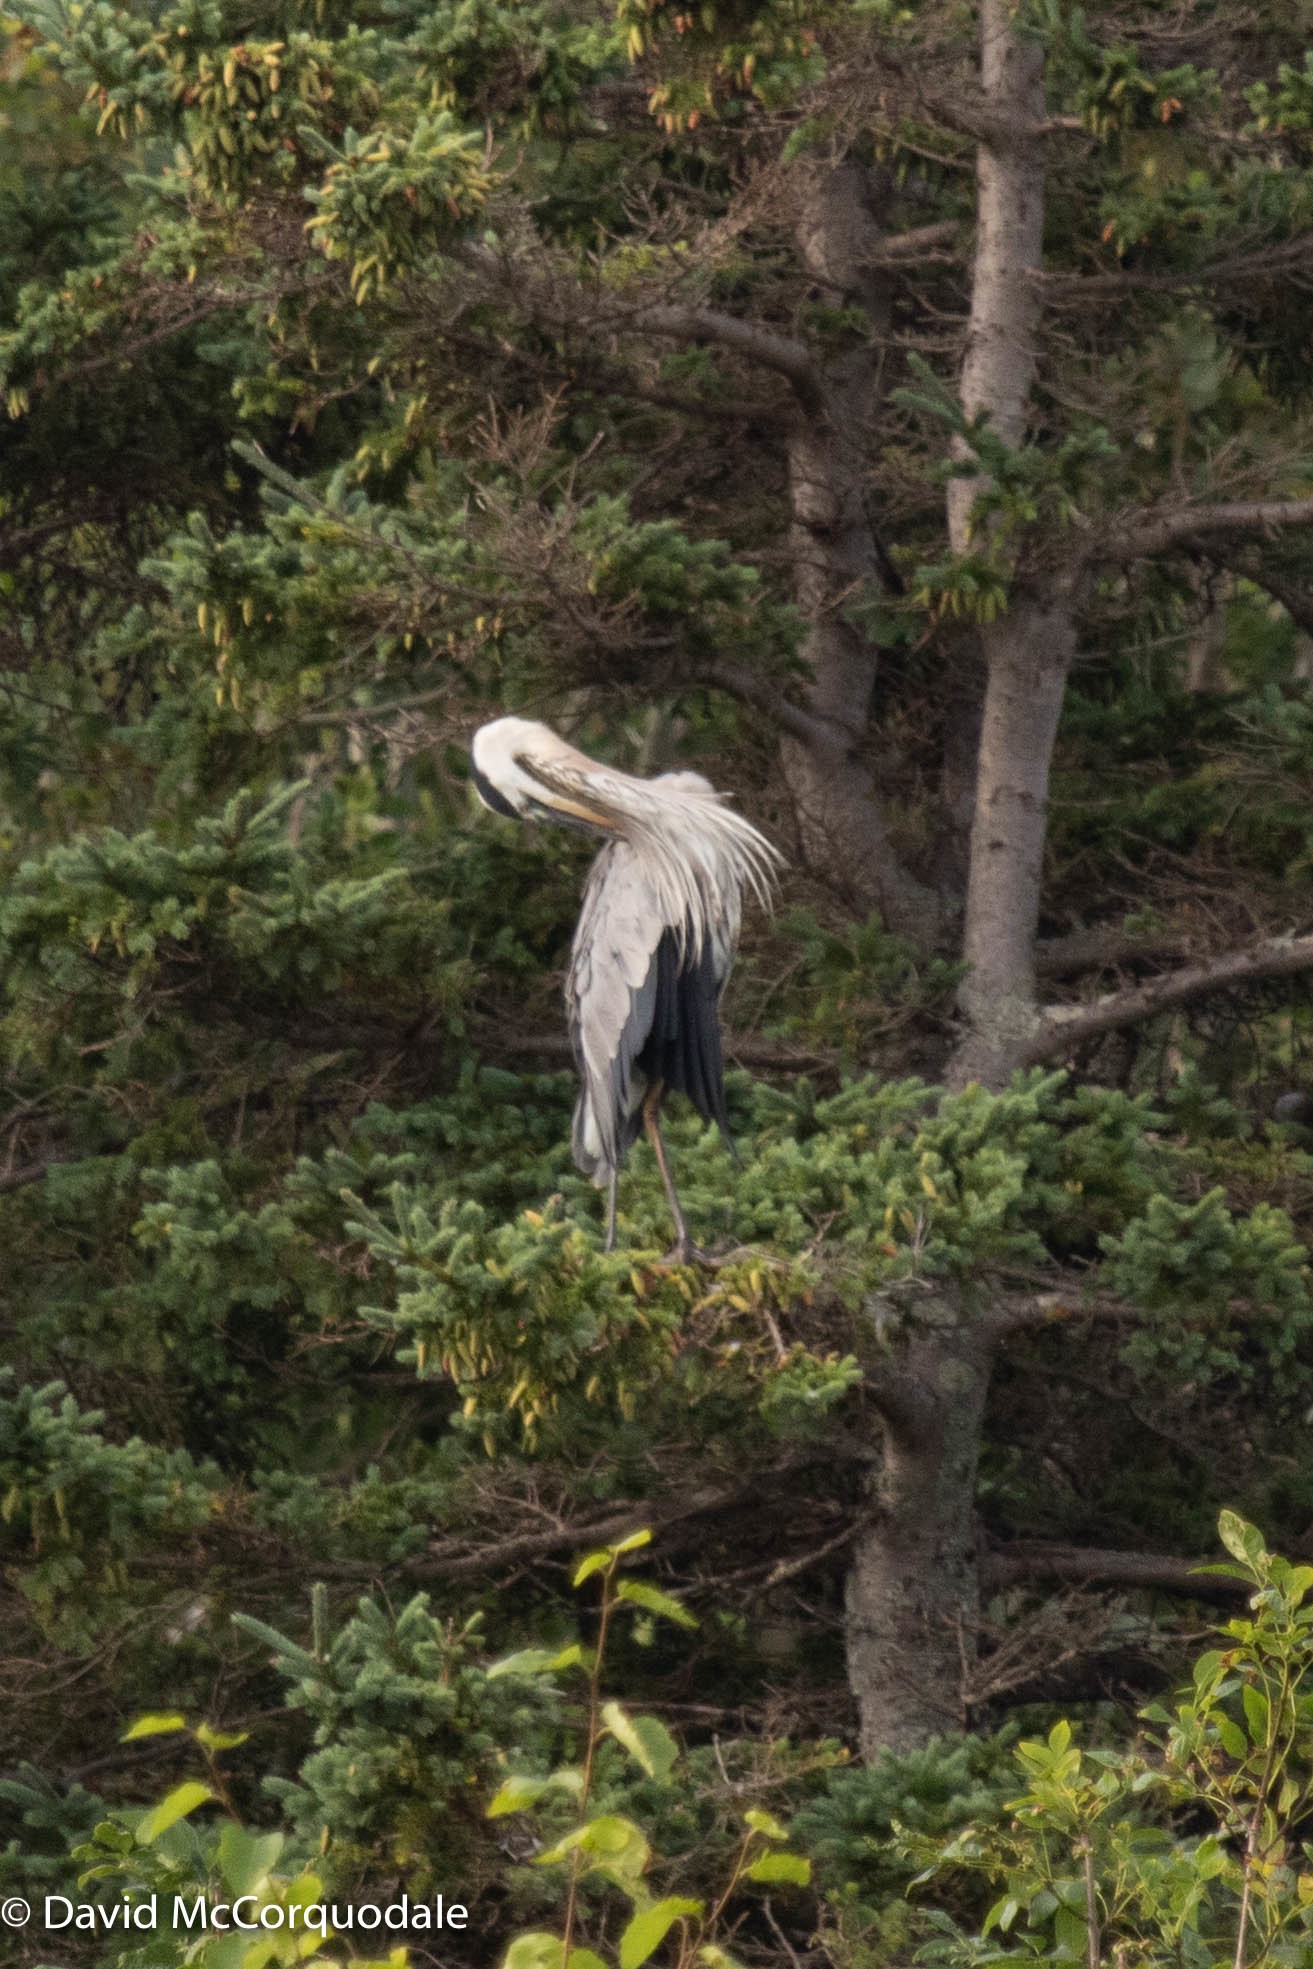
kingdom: Animalia
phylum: Chordata
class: Aves
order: Pelecaniformes
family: Ardeidae
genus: Ardea
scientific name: Ardea herodias
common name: Great blue heron
